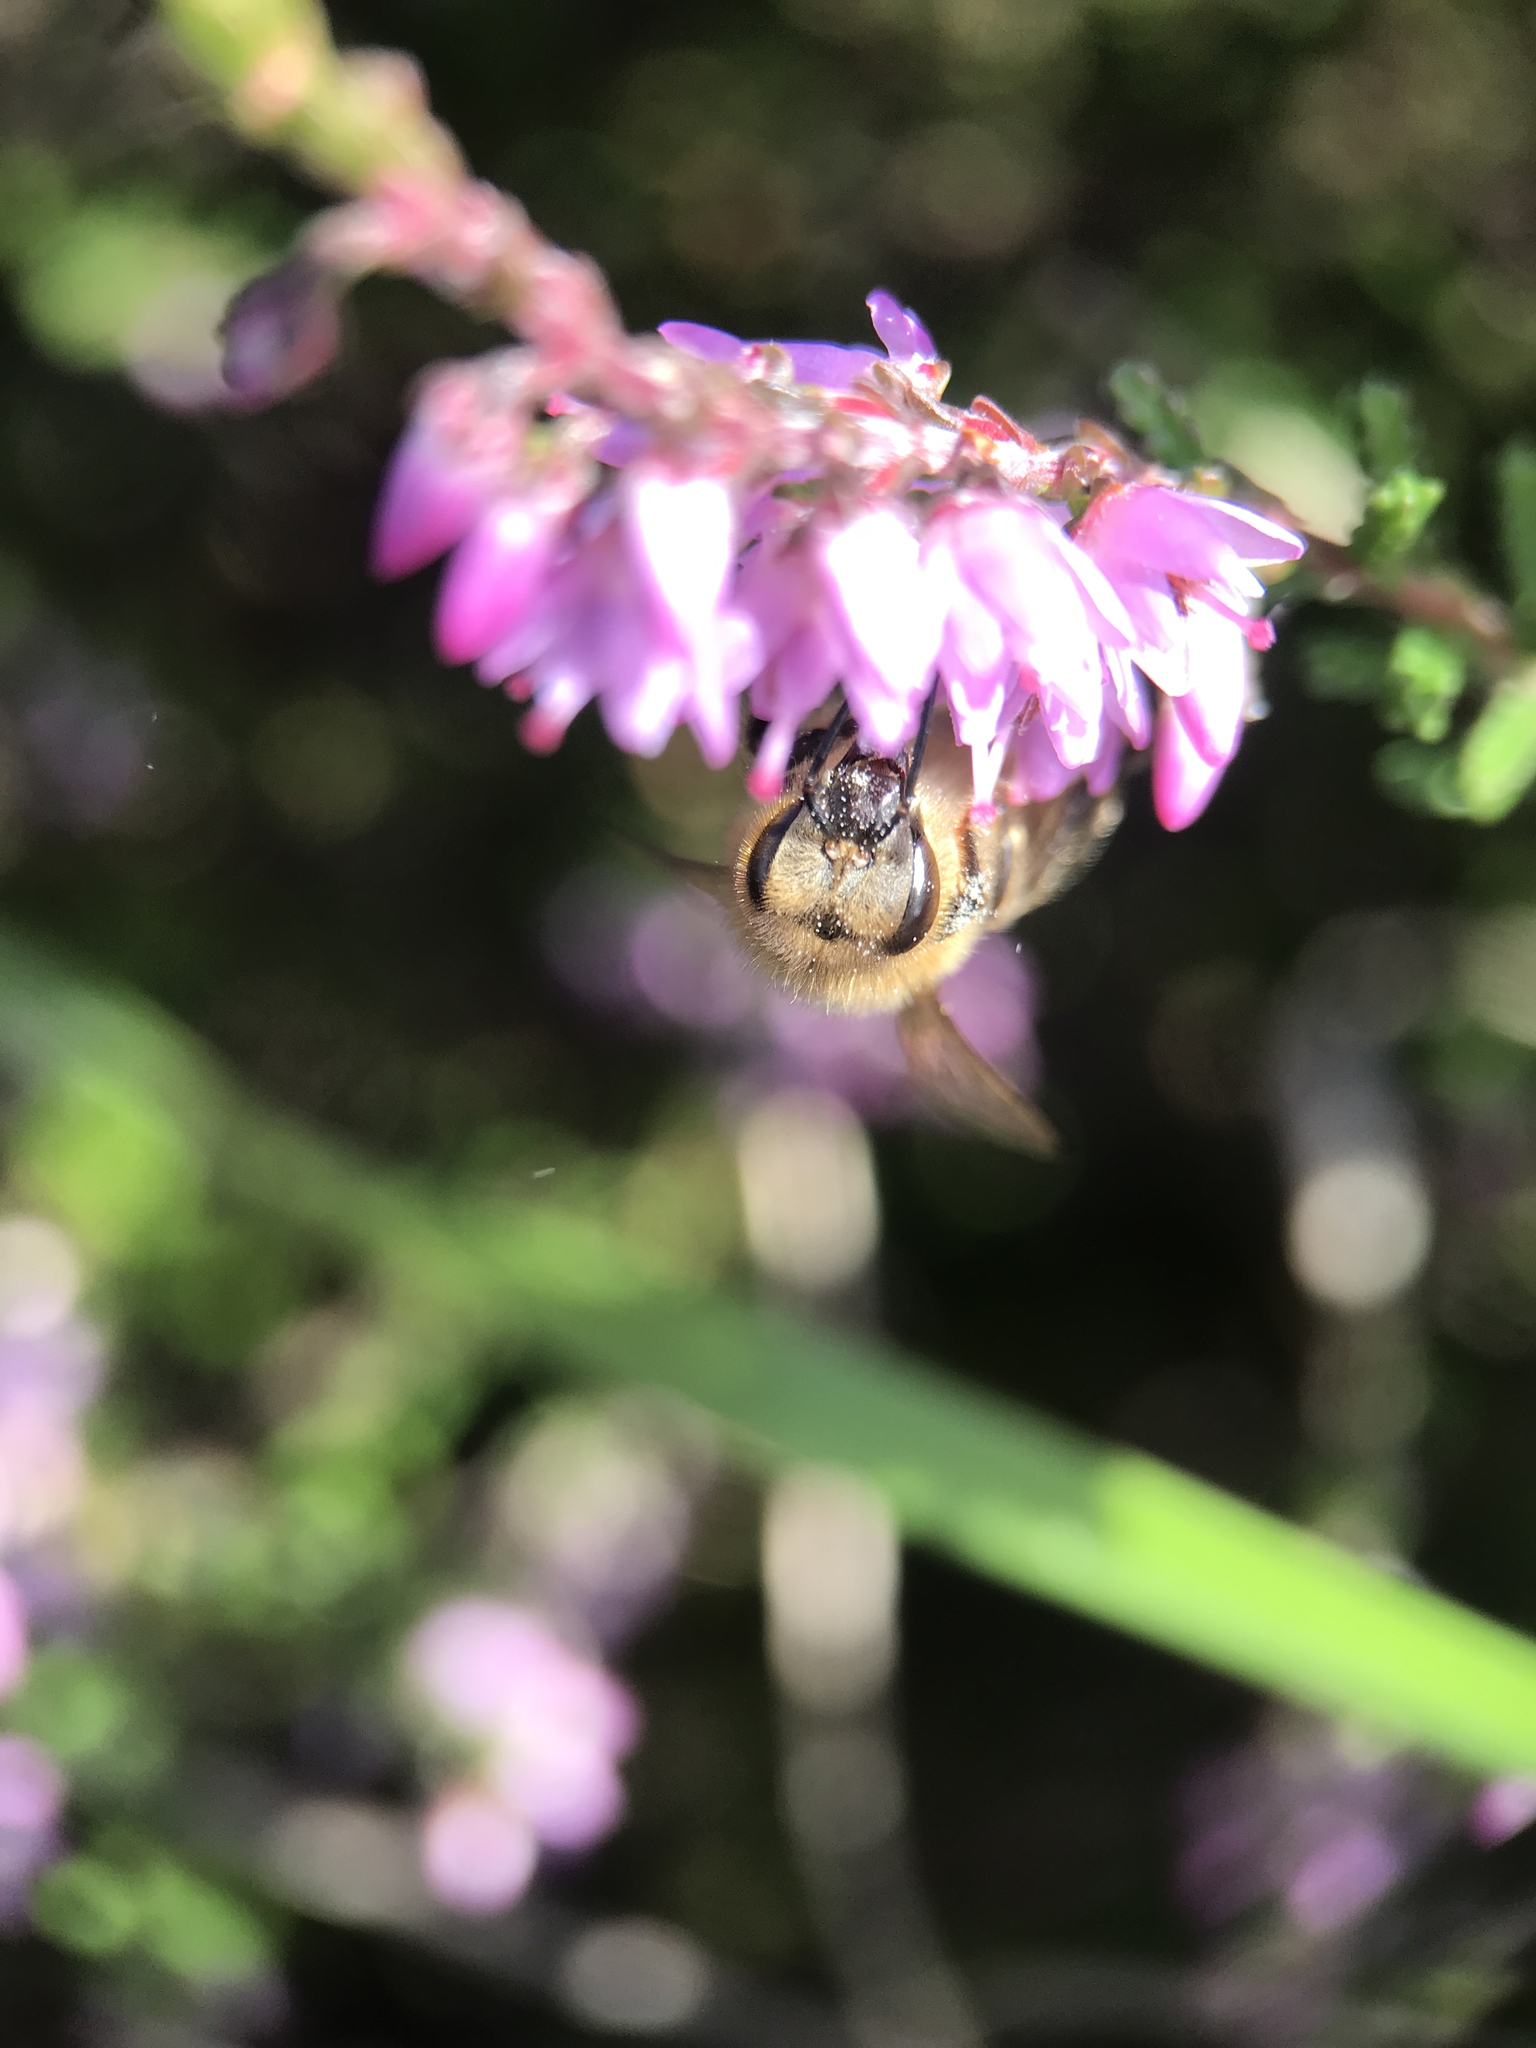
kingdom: Animalia
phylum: Arthropoda
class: Insecta
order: Hymenoptera
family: Apidae
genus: Apis
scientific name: Apis mellifera
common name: Honey bee
